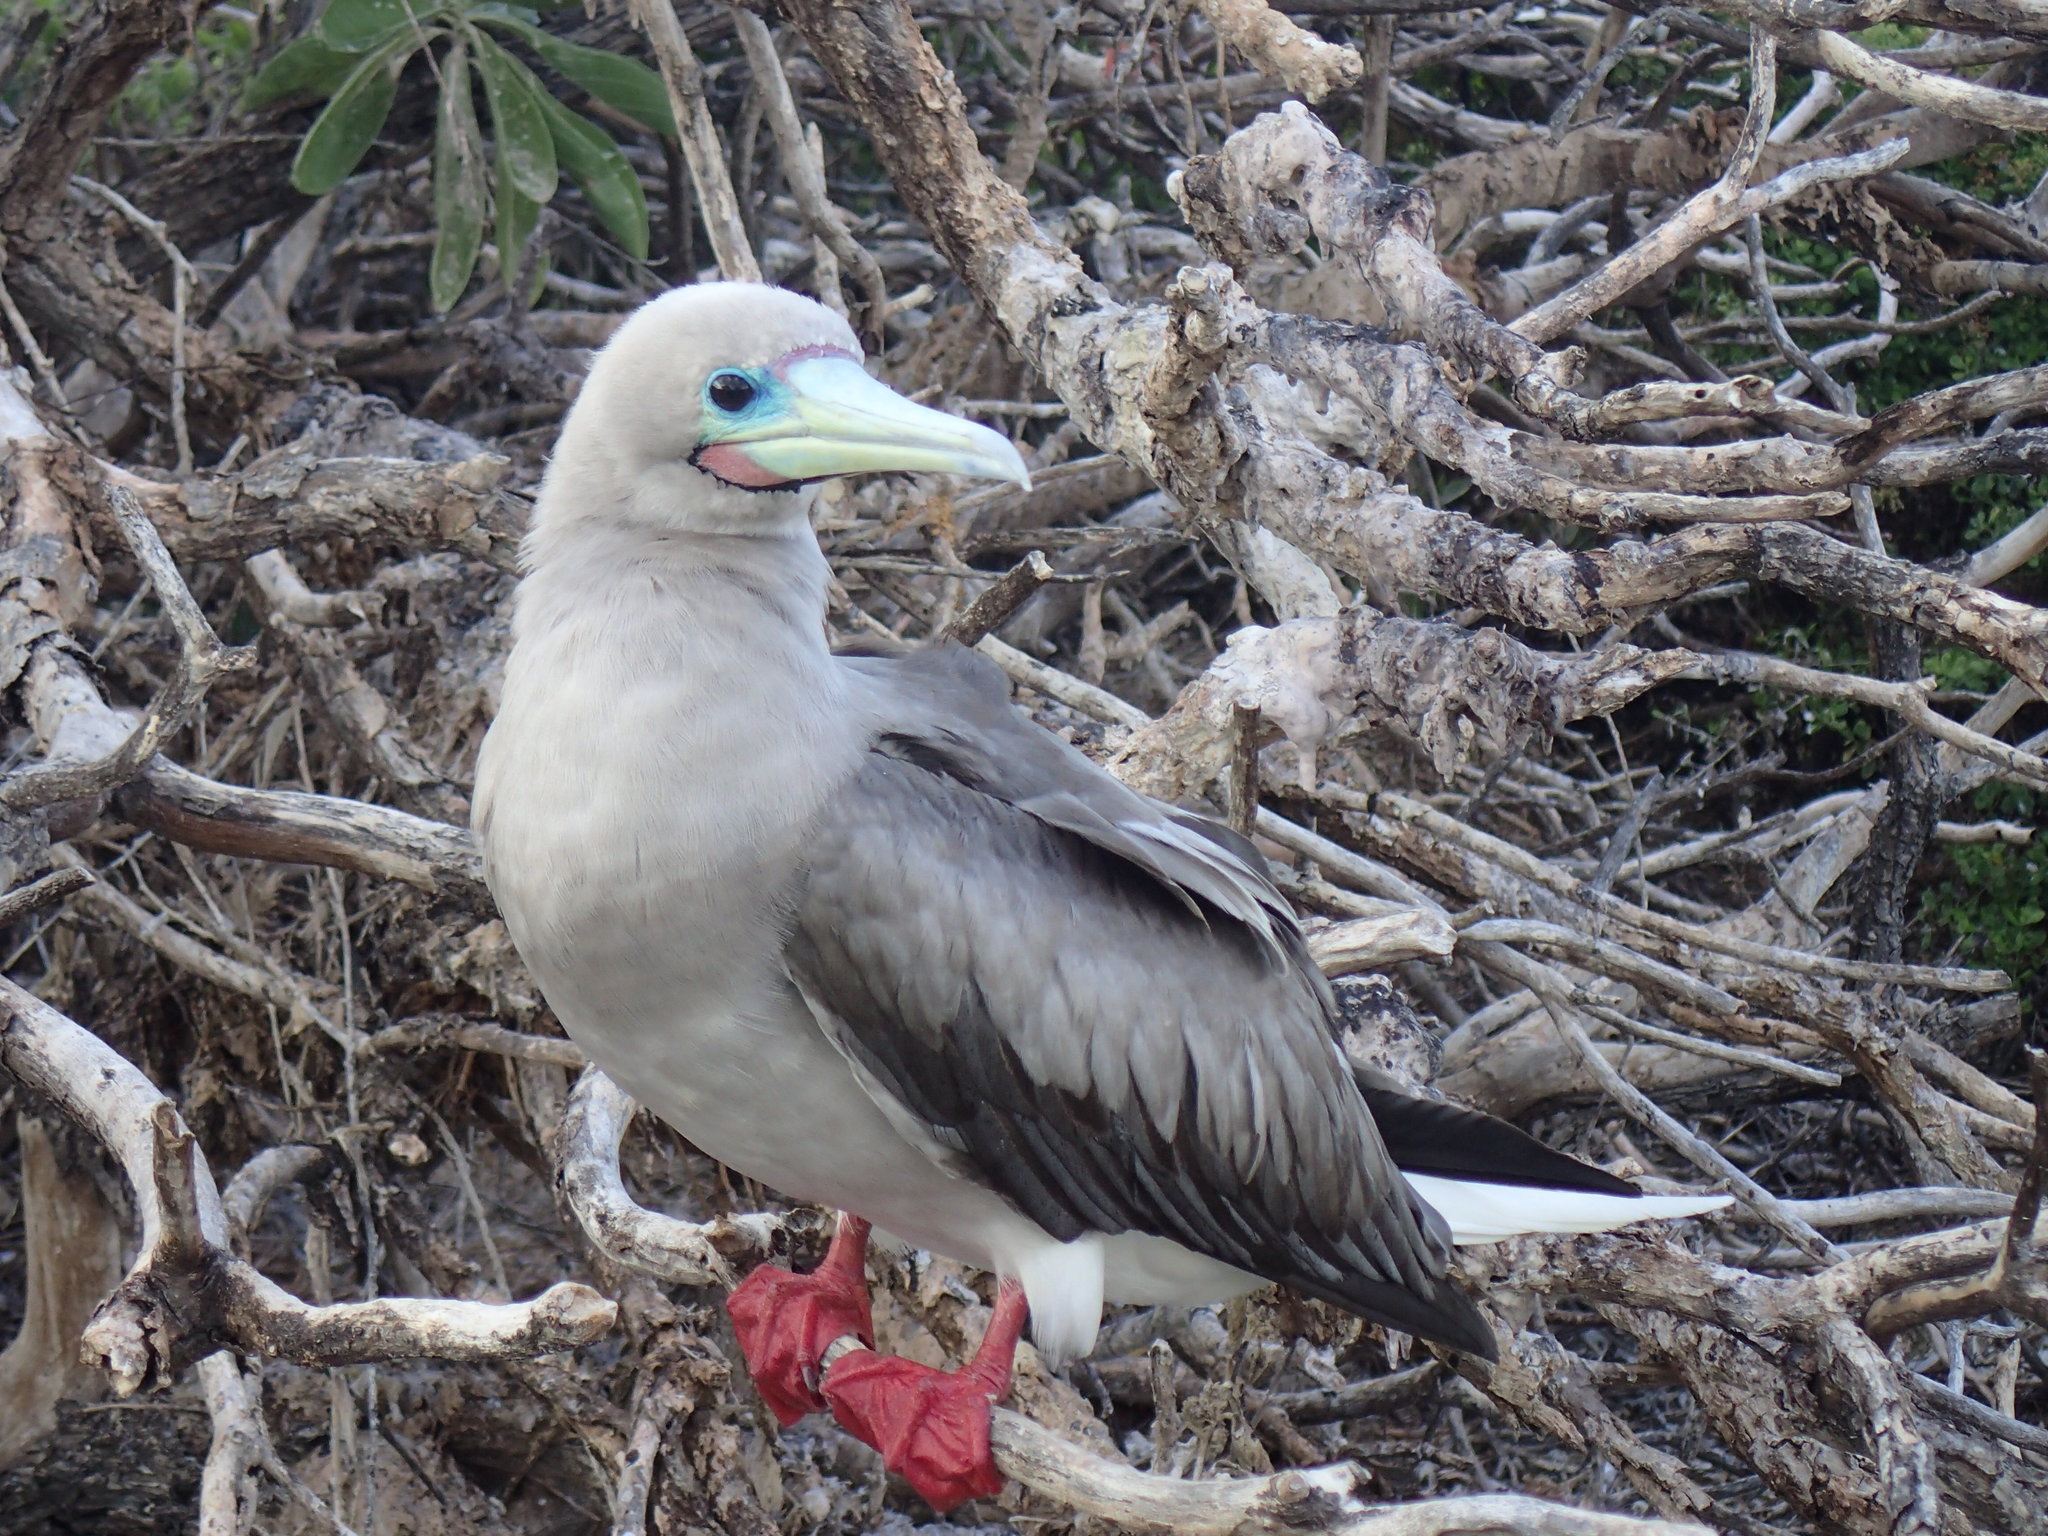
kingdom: Animalia
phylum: Chordata
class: Aves
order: Suliformes
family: Sulidae
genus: Sula
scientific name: Sula sula
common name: Red-footed booby
